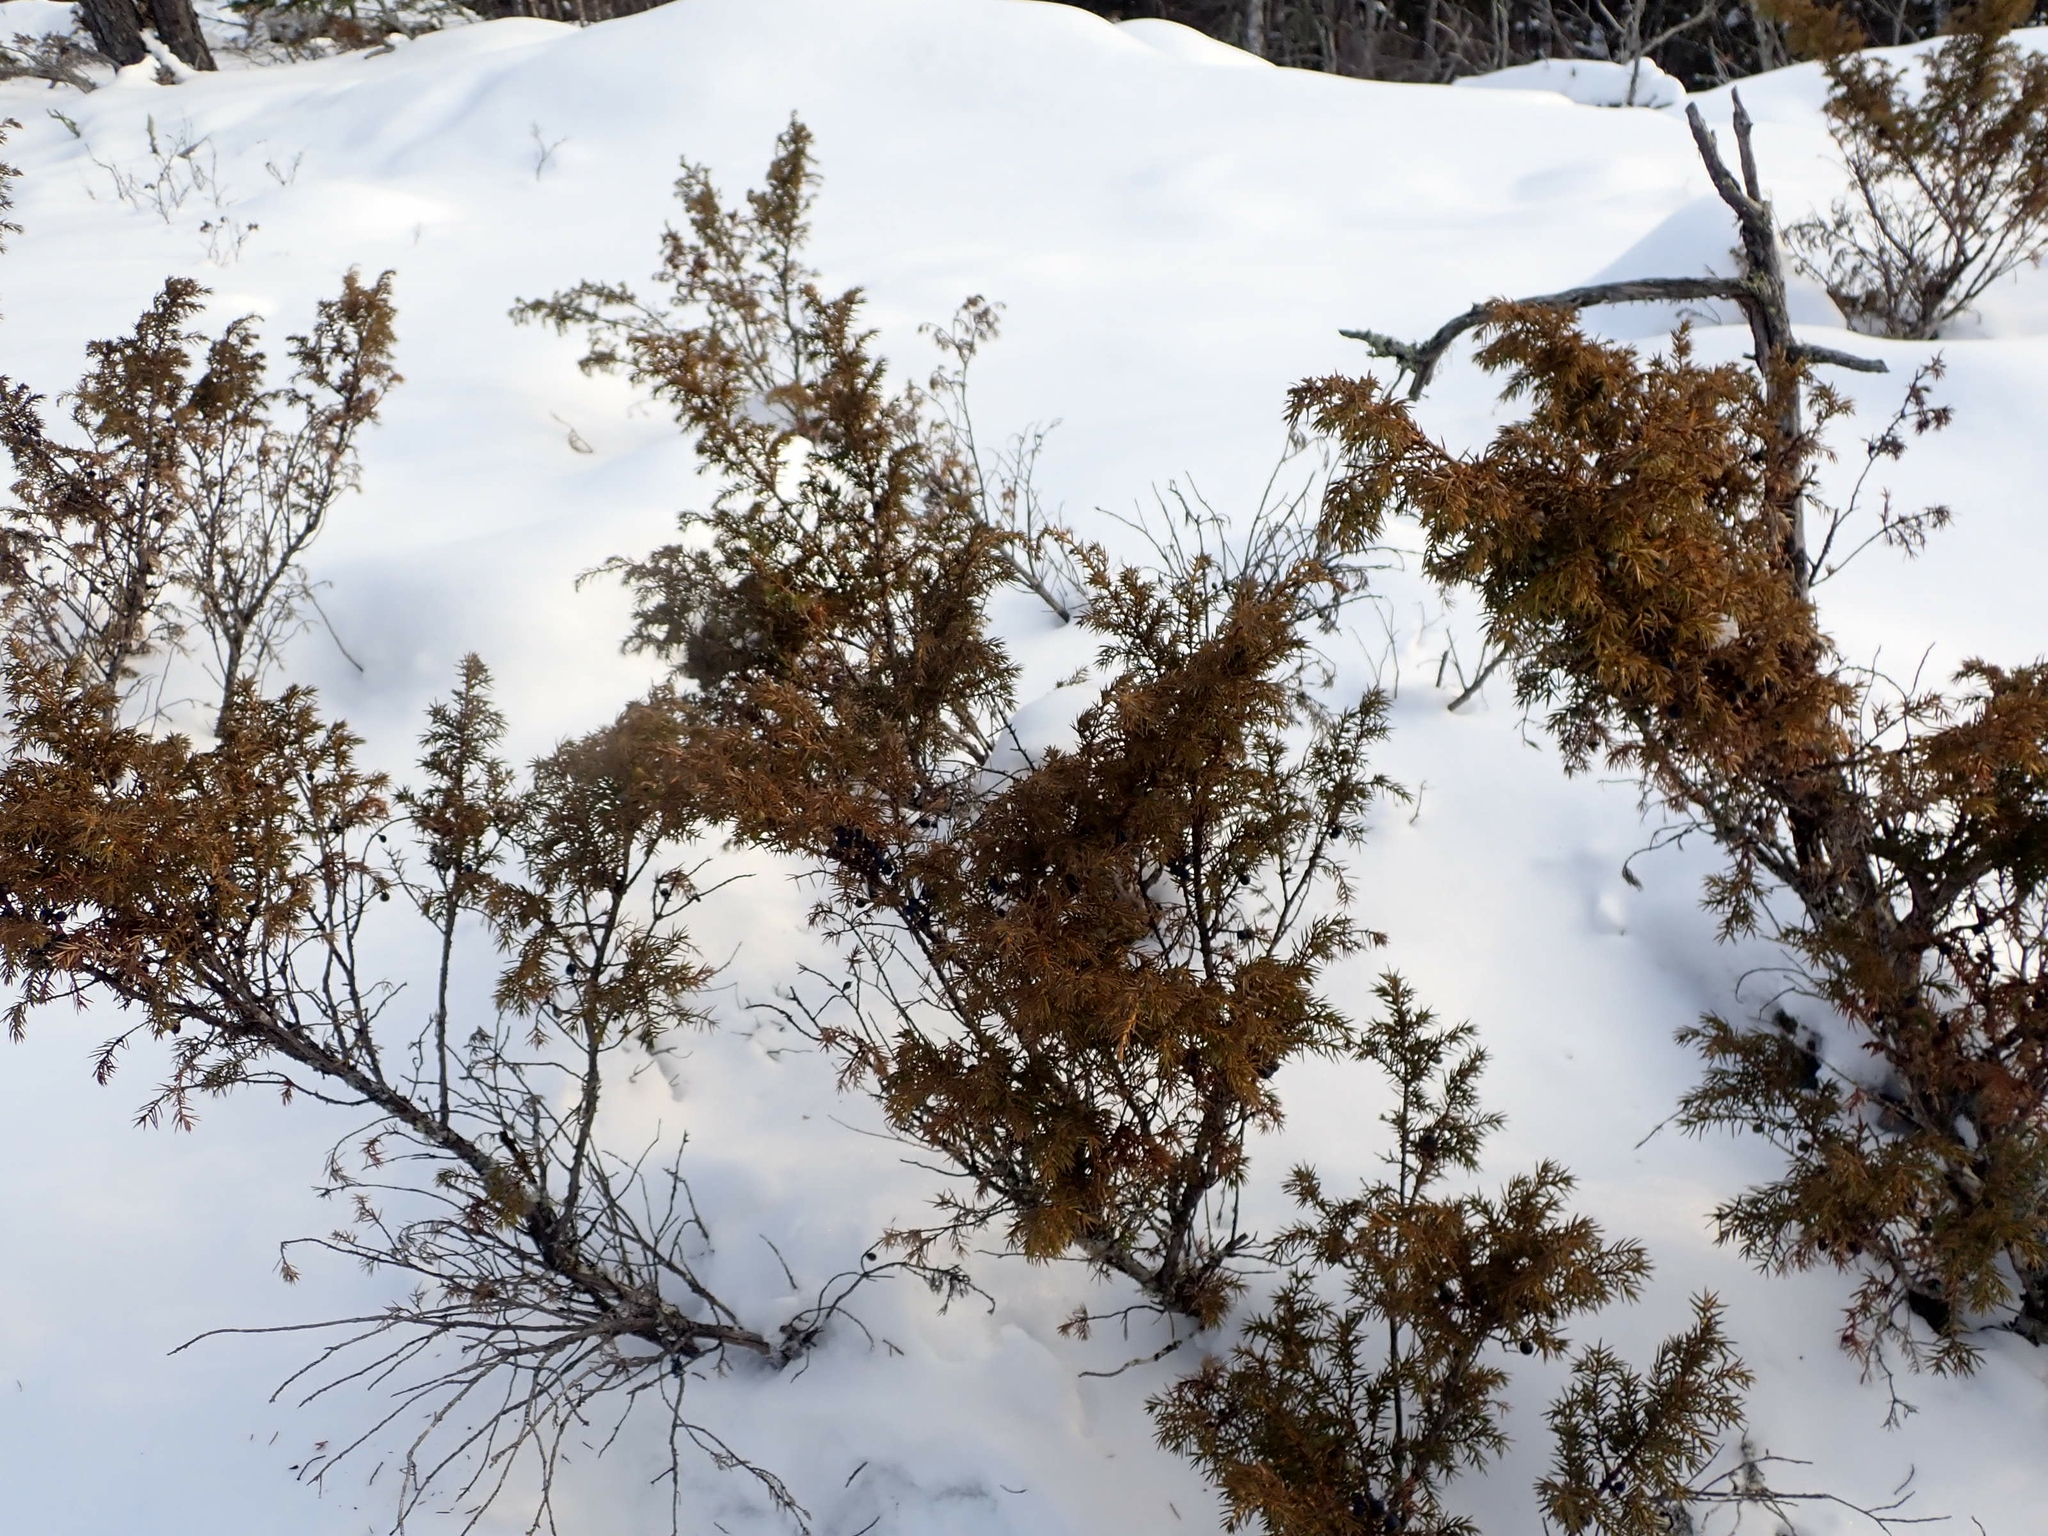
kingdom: Plantae
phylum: Tracheophyta
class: Pinopsida
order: Pinales
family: Cupressaceae
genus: Juniperus
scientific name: Juniperus communis
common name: Common juniper
